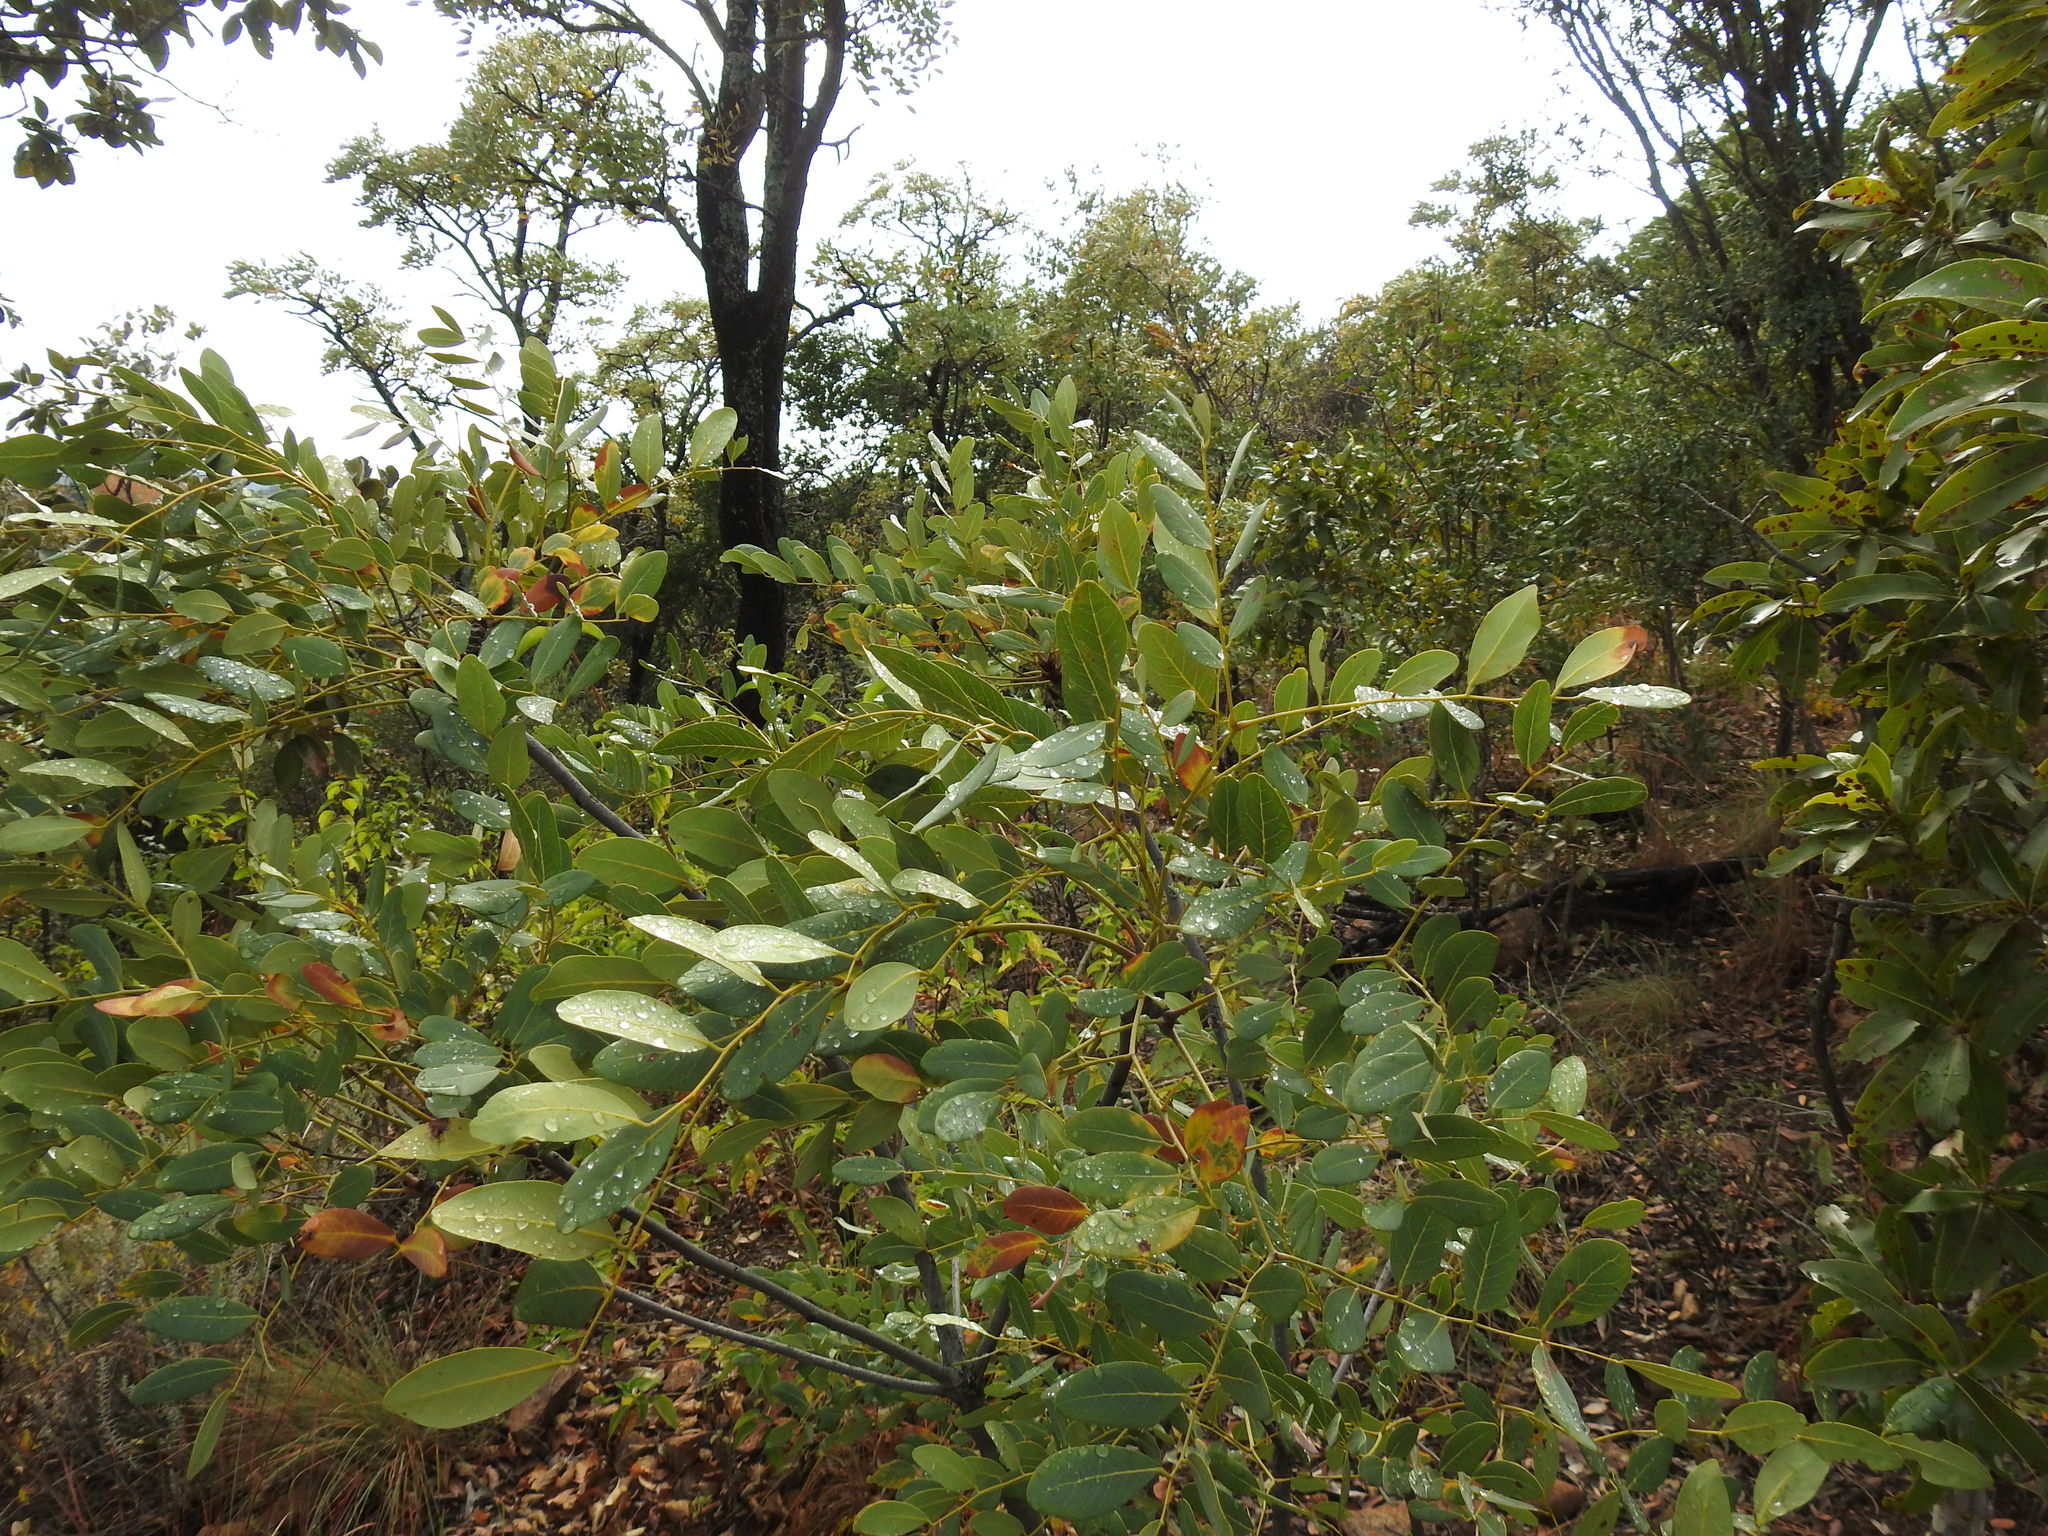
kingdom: Plantae
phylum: Tracheophyta
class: Magnoliopsida
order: Fabales
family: Fabaceae
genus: Burkea
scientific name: Burkea africana
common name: Mkalati tree
